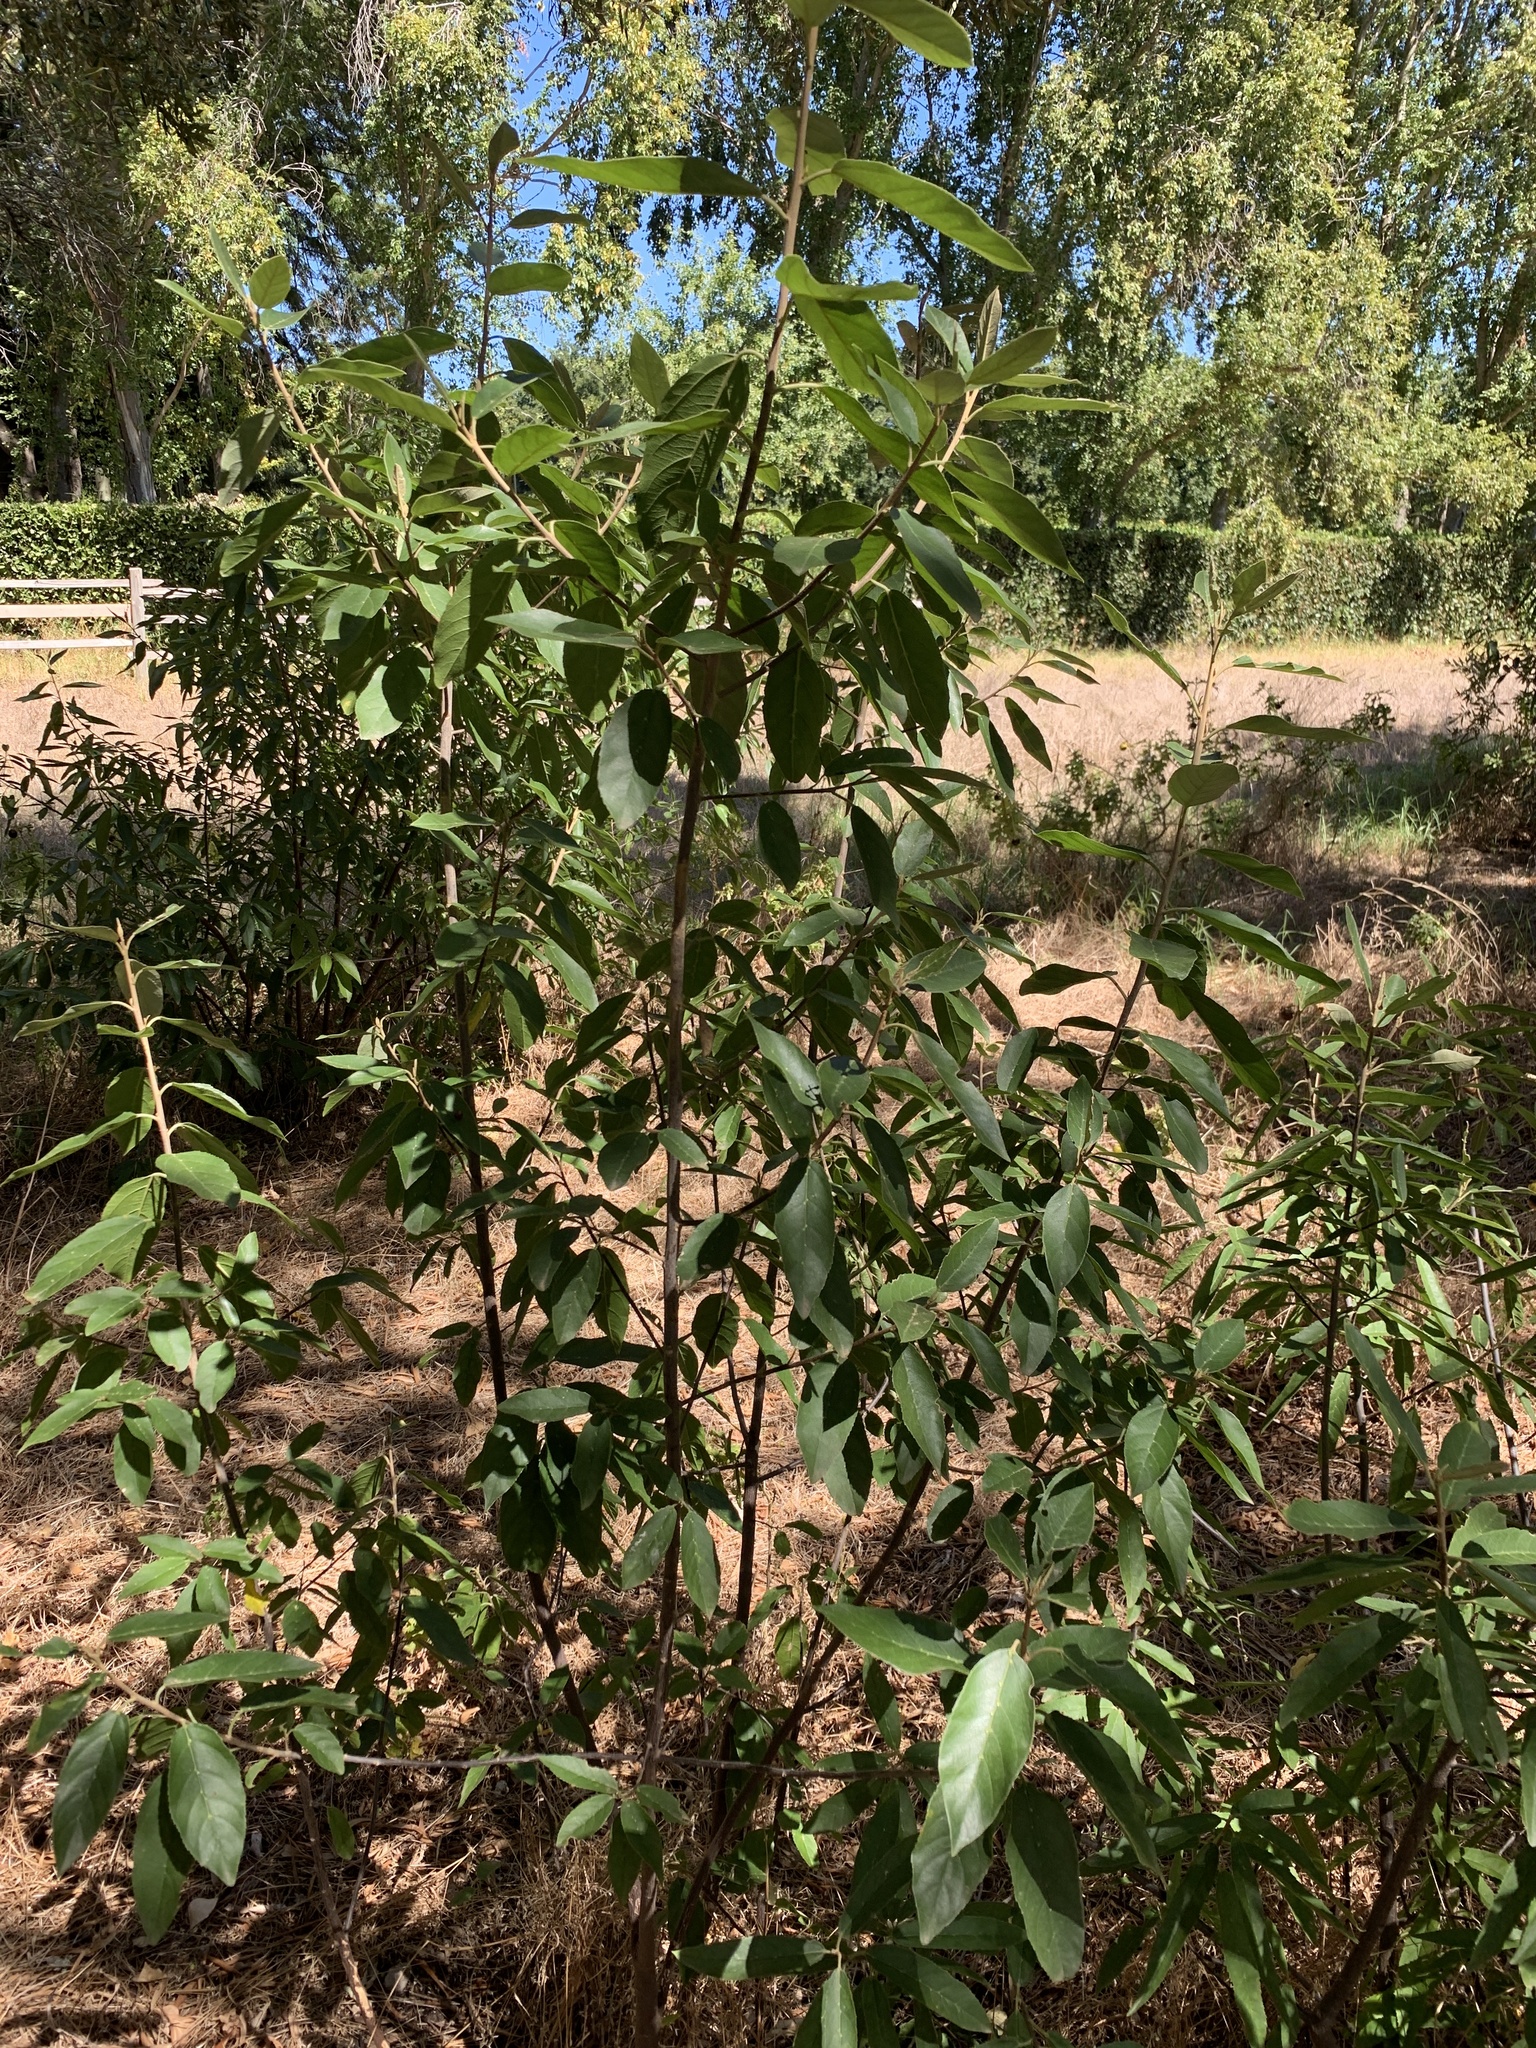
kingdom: Plantae
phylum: Tracheophyta
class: Magnoliopsida
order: Malpighiales
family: Achariaceae
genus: Kiggelaria
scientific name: Kiggelaria africana
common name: Wild peach
